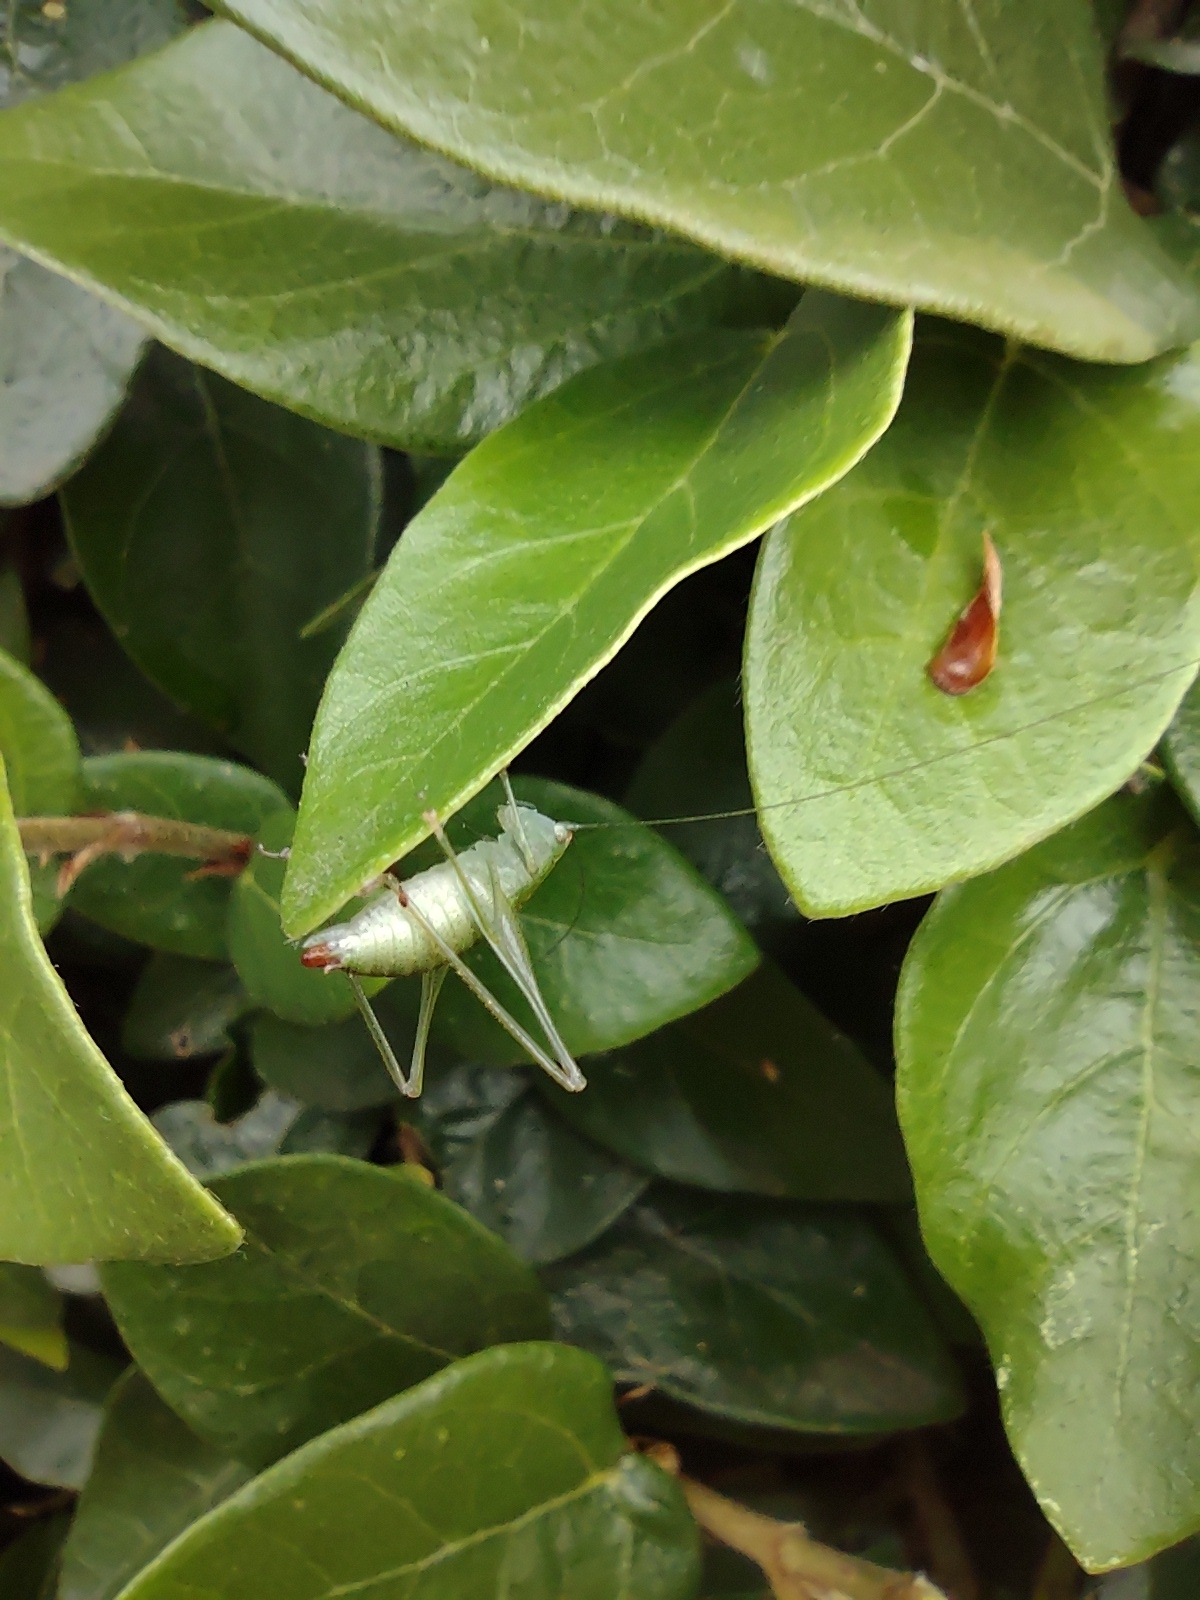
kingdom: Animalia
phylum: Arthropoda
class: Insecta
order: Orthoptera
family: Tettigoniidae
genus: Grammadera
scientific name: Grammadera clara
